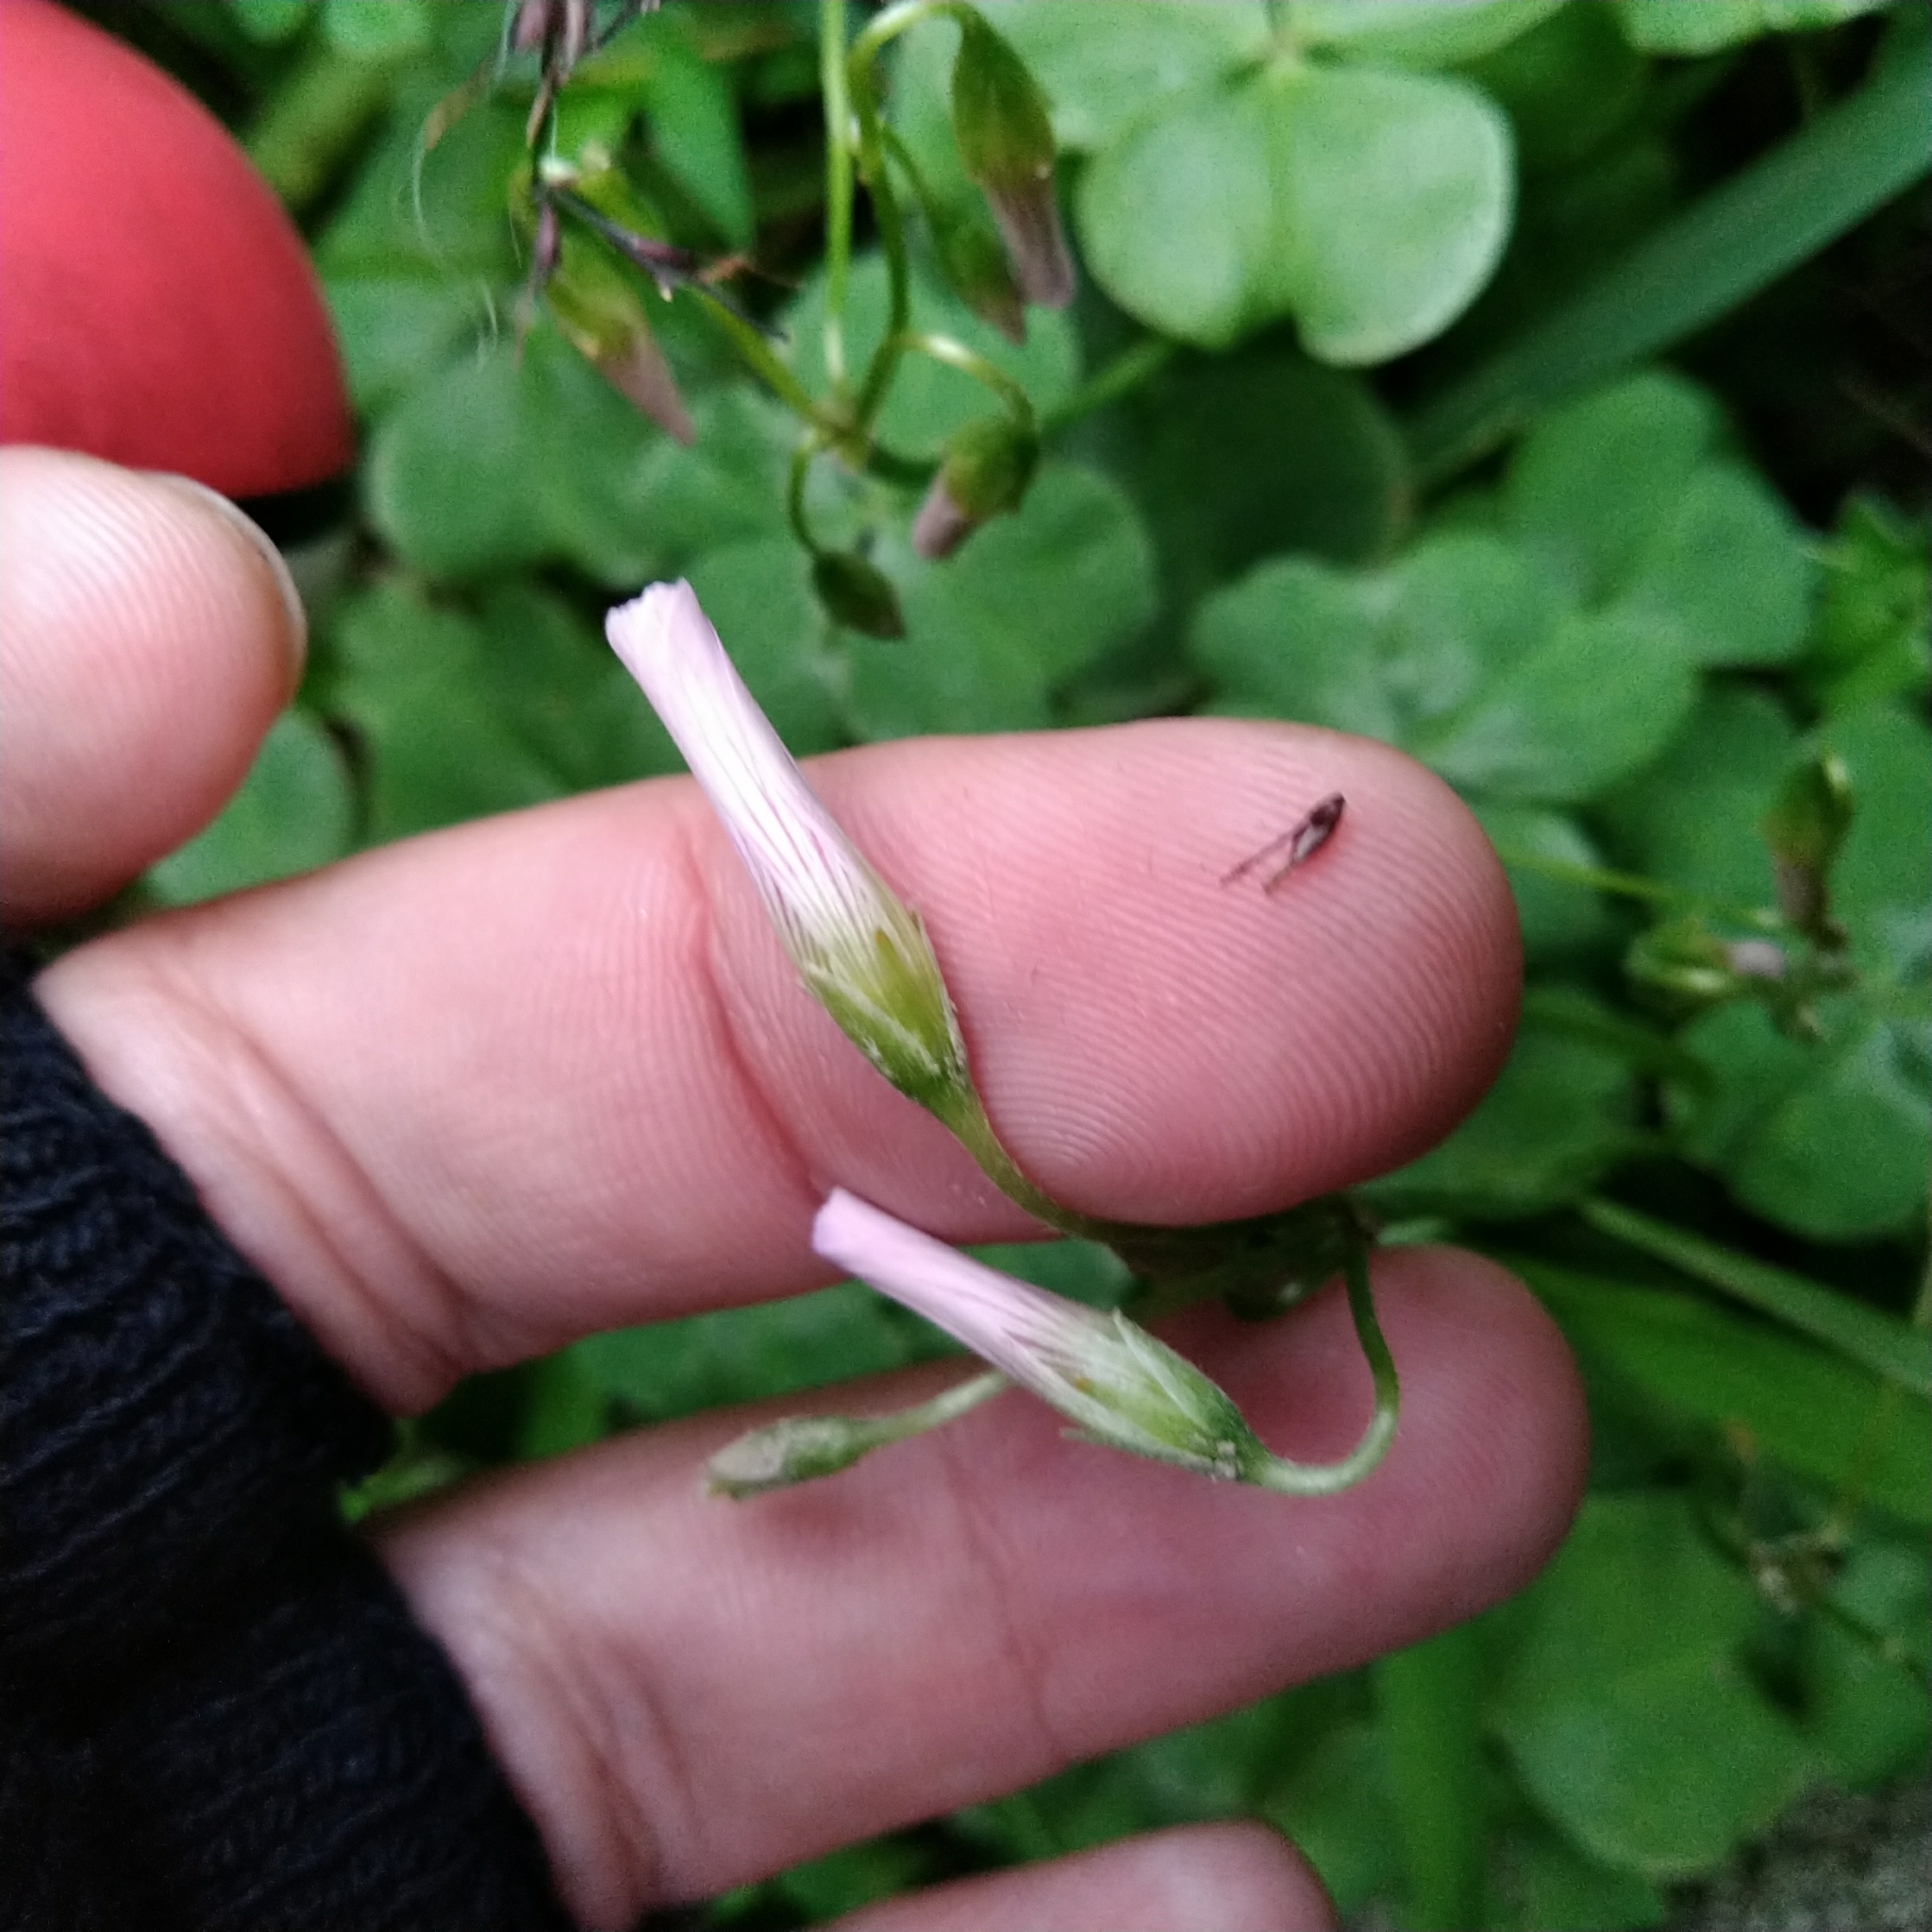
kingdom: Plantae
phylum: Tracheophyta
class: Magnoliopsida
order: Oxalidales
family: Oxalidaceae
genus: Oxalis
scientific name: Oxalis debilis
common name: Large-flowered pink-sorrel
